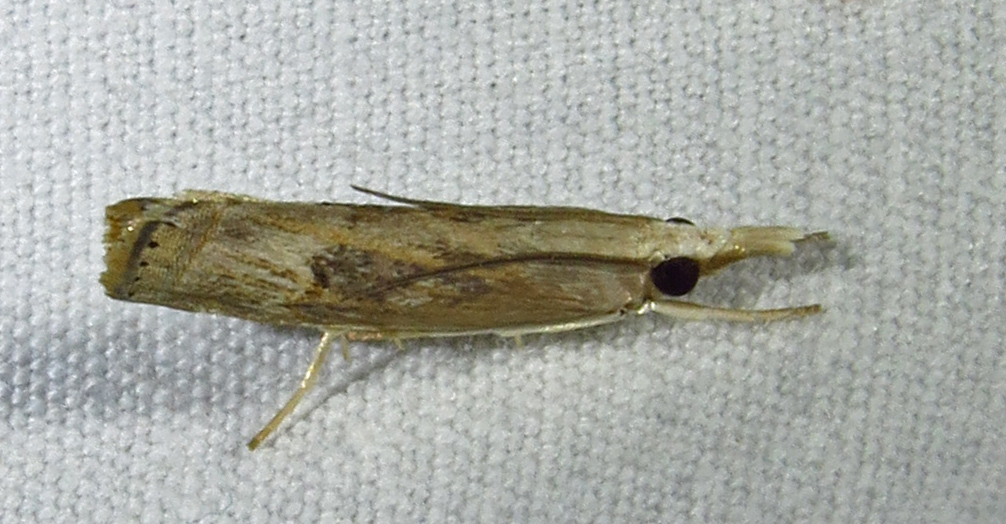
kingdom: Animalia
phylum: Arthropoda
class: Insecta
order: Lepidoptera
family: Crambidae
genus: Parapediasia
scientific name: Parapediasia teterellus
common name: Bluegrass webworm moth
